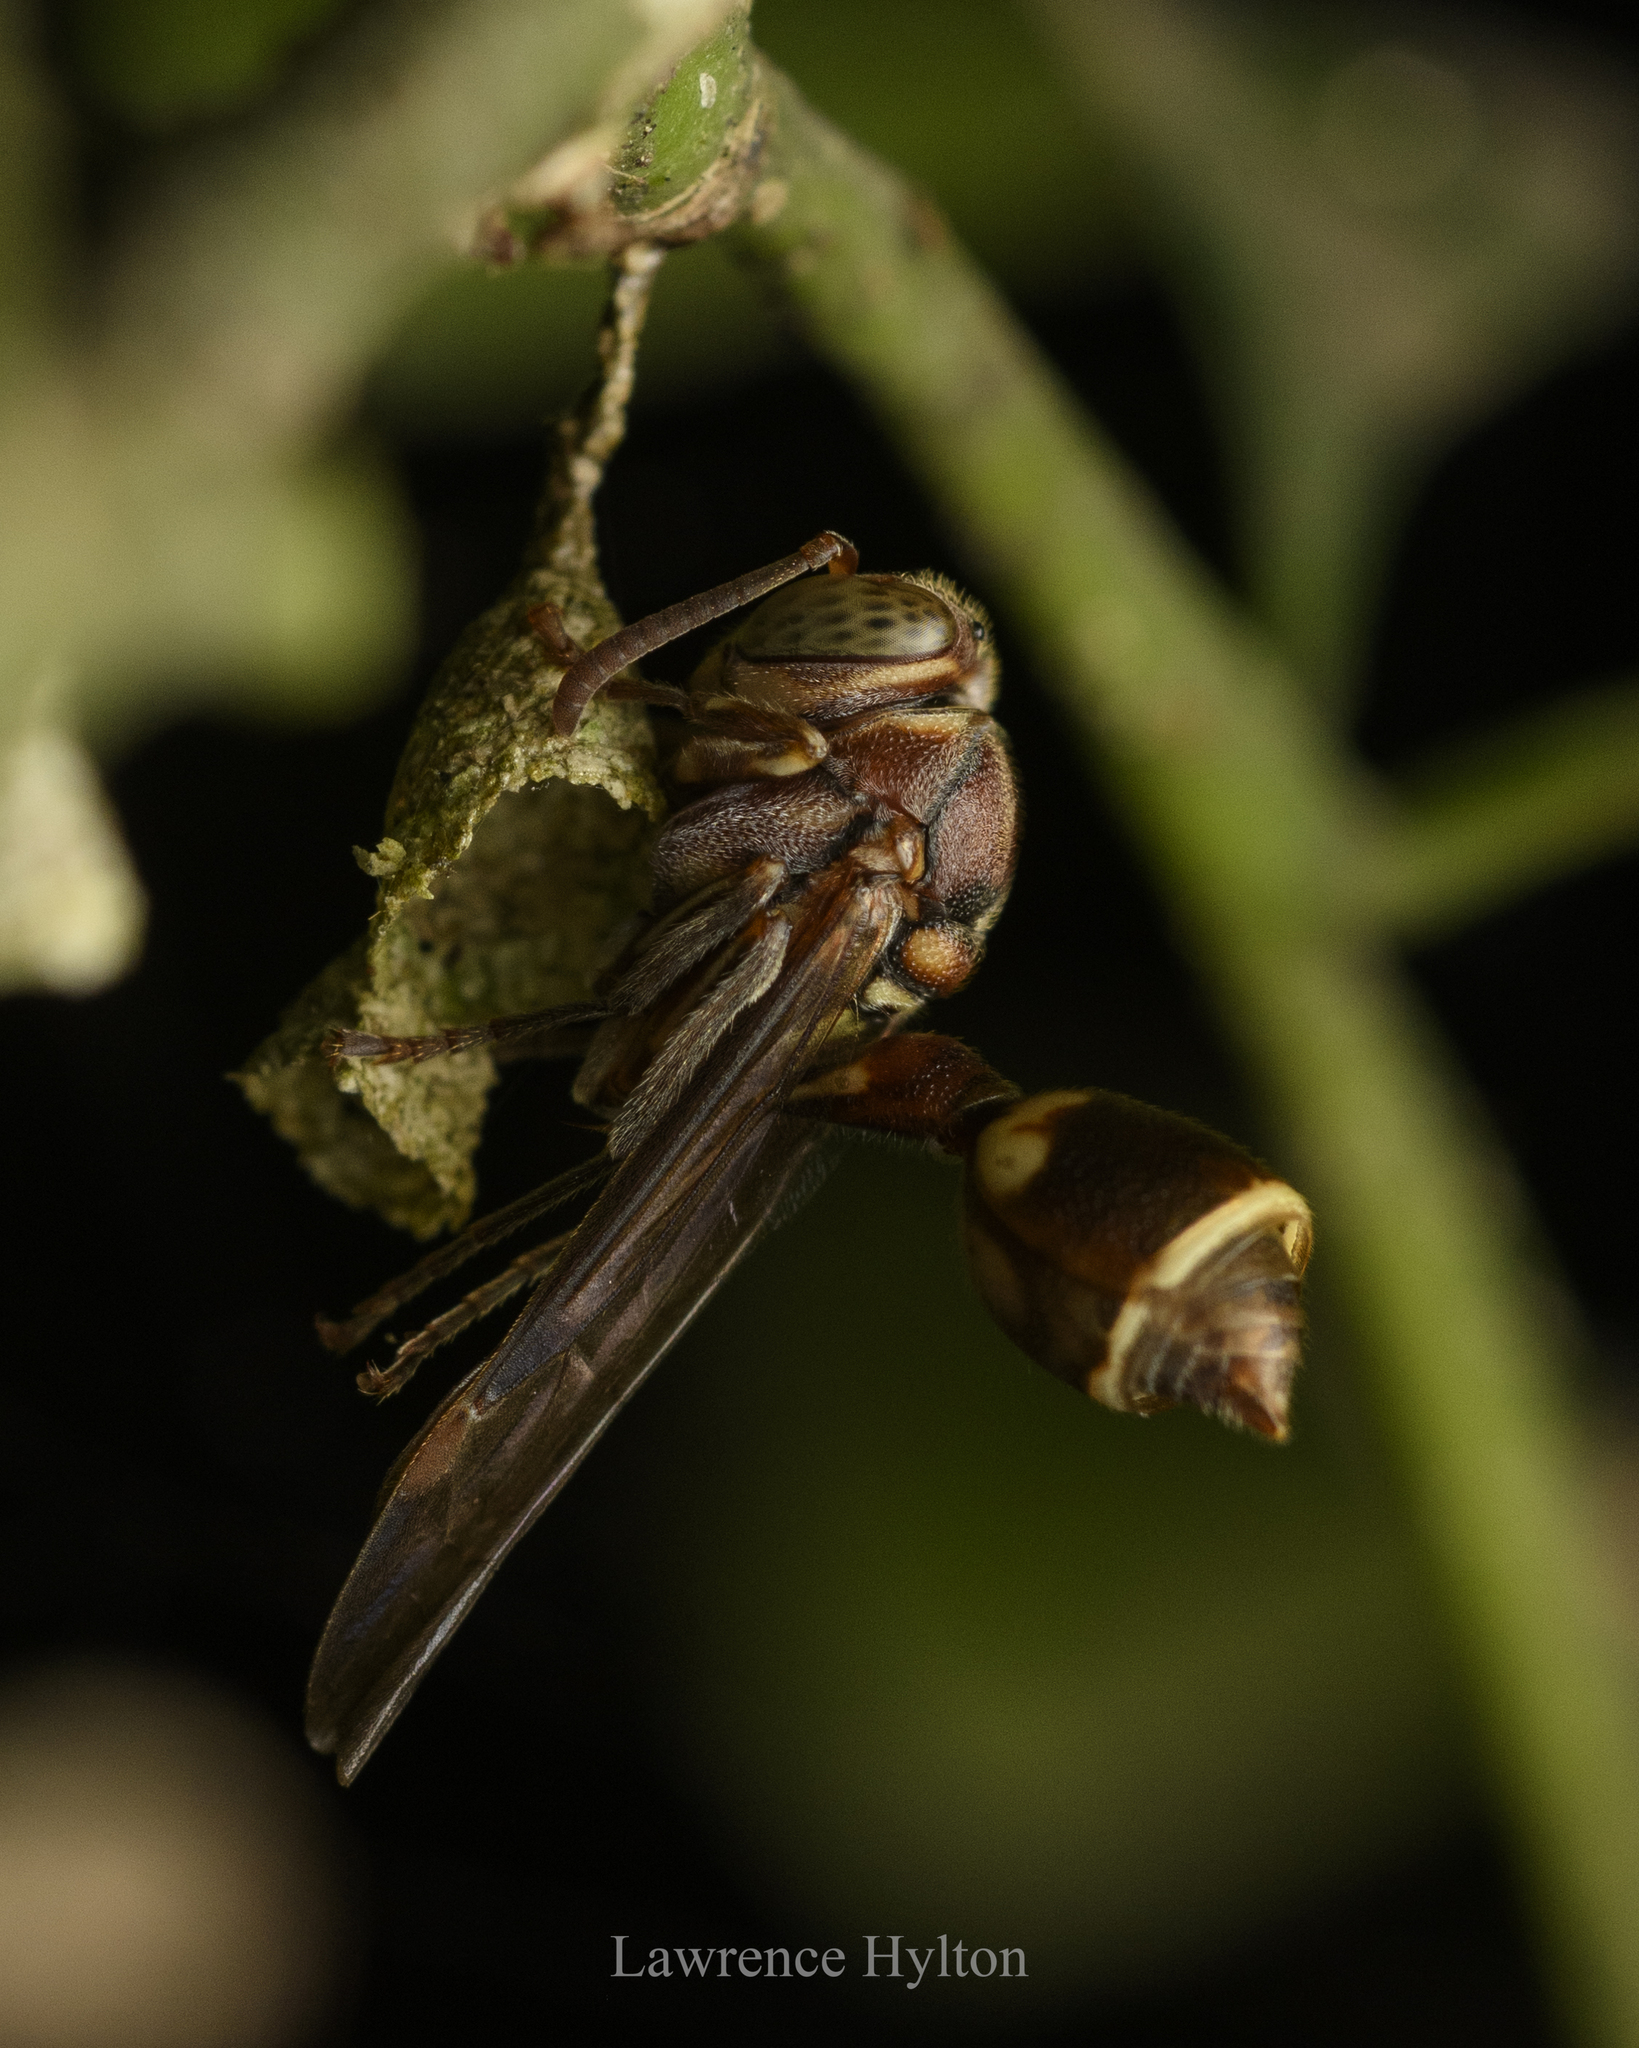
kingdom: Animalia
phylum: Arthropoda
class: Insecta
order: Hymenoptera
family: Vespidae
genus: Ropalidia
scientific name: Ropalidia stigma
